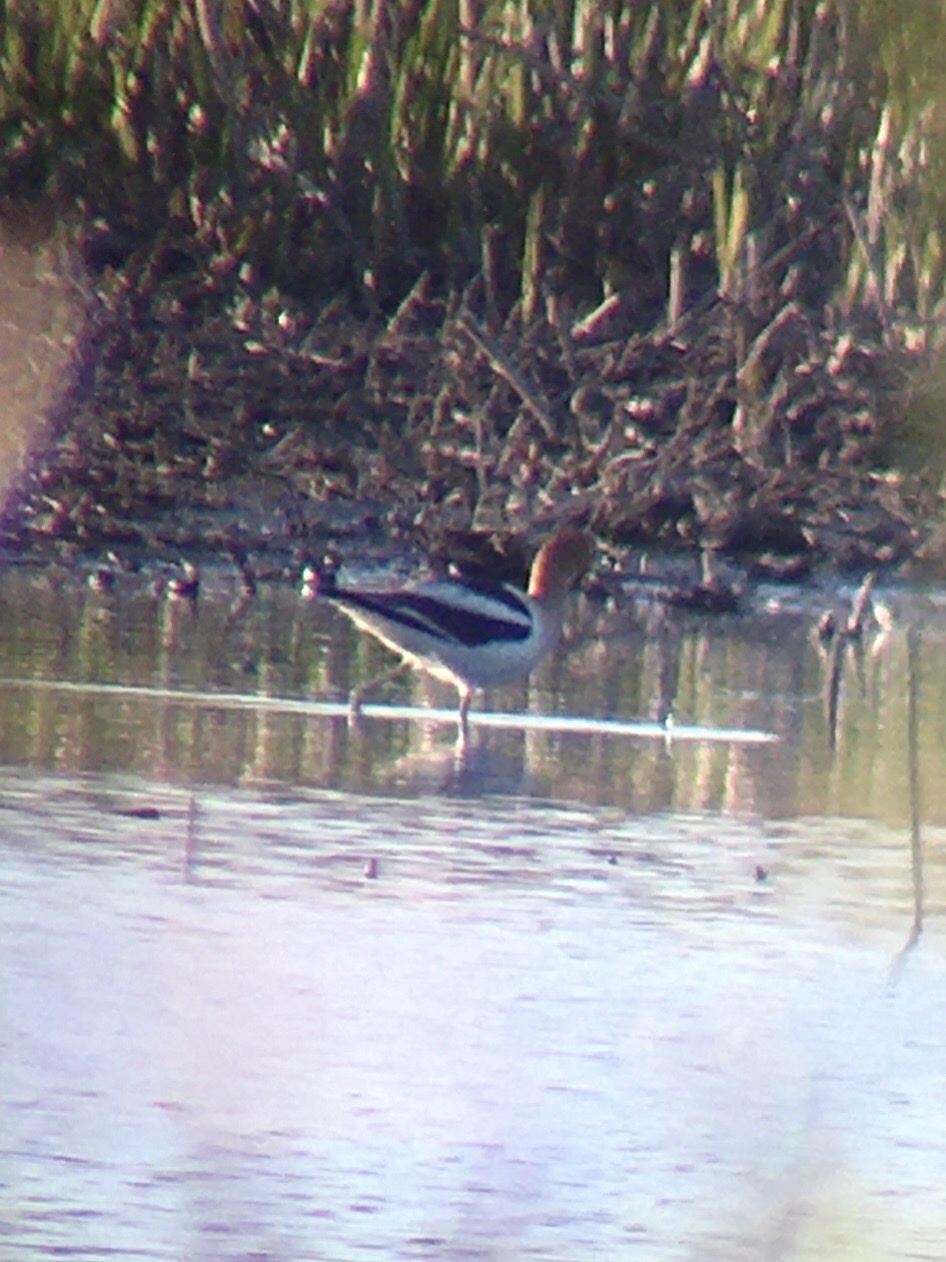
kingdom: Animalia
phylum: Chordata
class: Aves
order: Charadriiformes
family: Recurvirostridae
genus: Recurvirostra
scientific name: Recurvirostra americana
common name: American avocet
